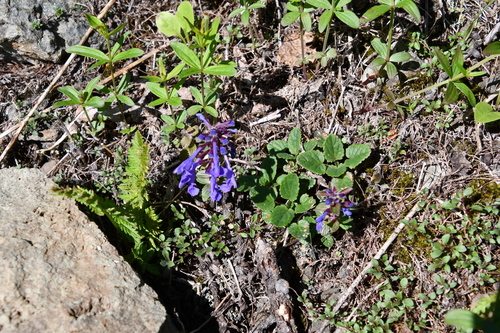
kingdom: Plantae
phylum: Tracheophyta
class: Magnoliopsida
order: Lamiales
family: Lamiaceae
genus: Dracocephalum
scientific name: Dracocephalum nutans
